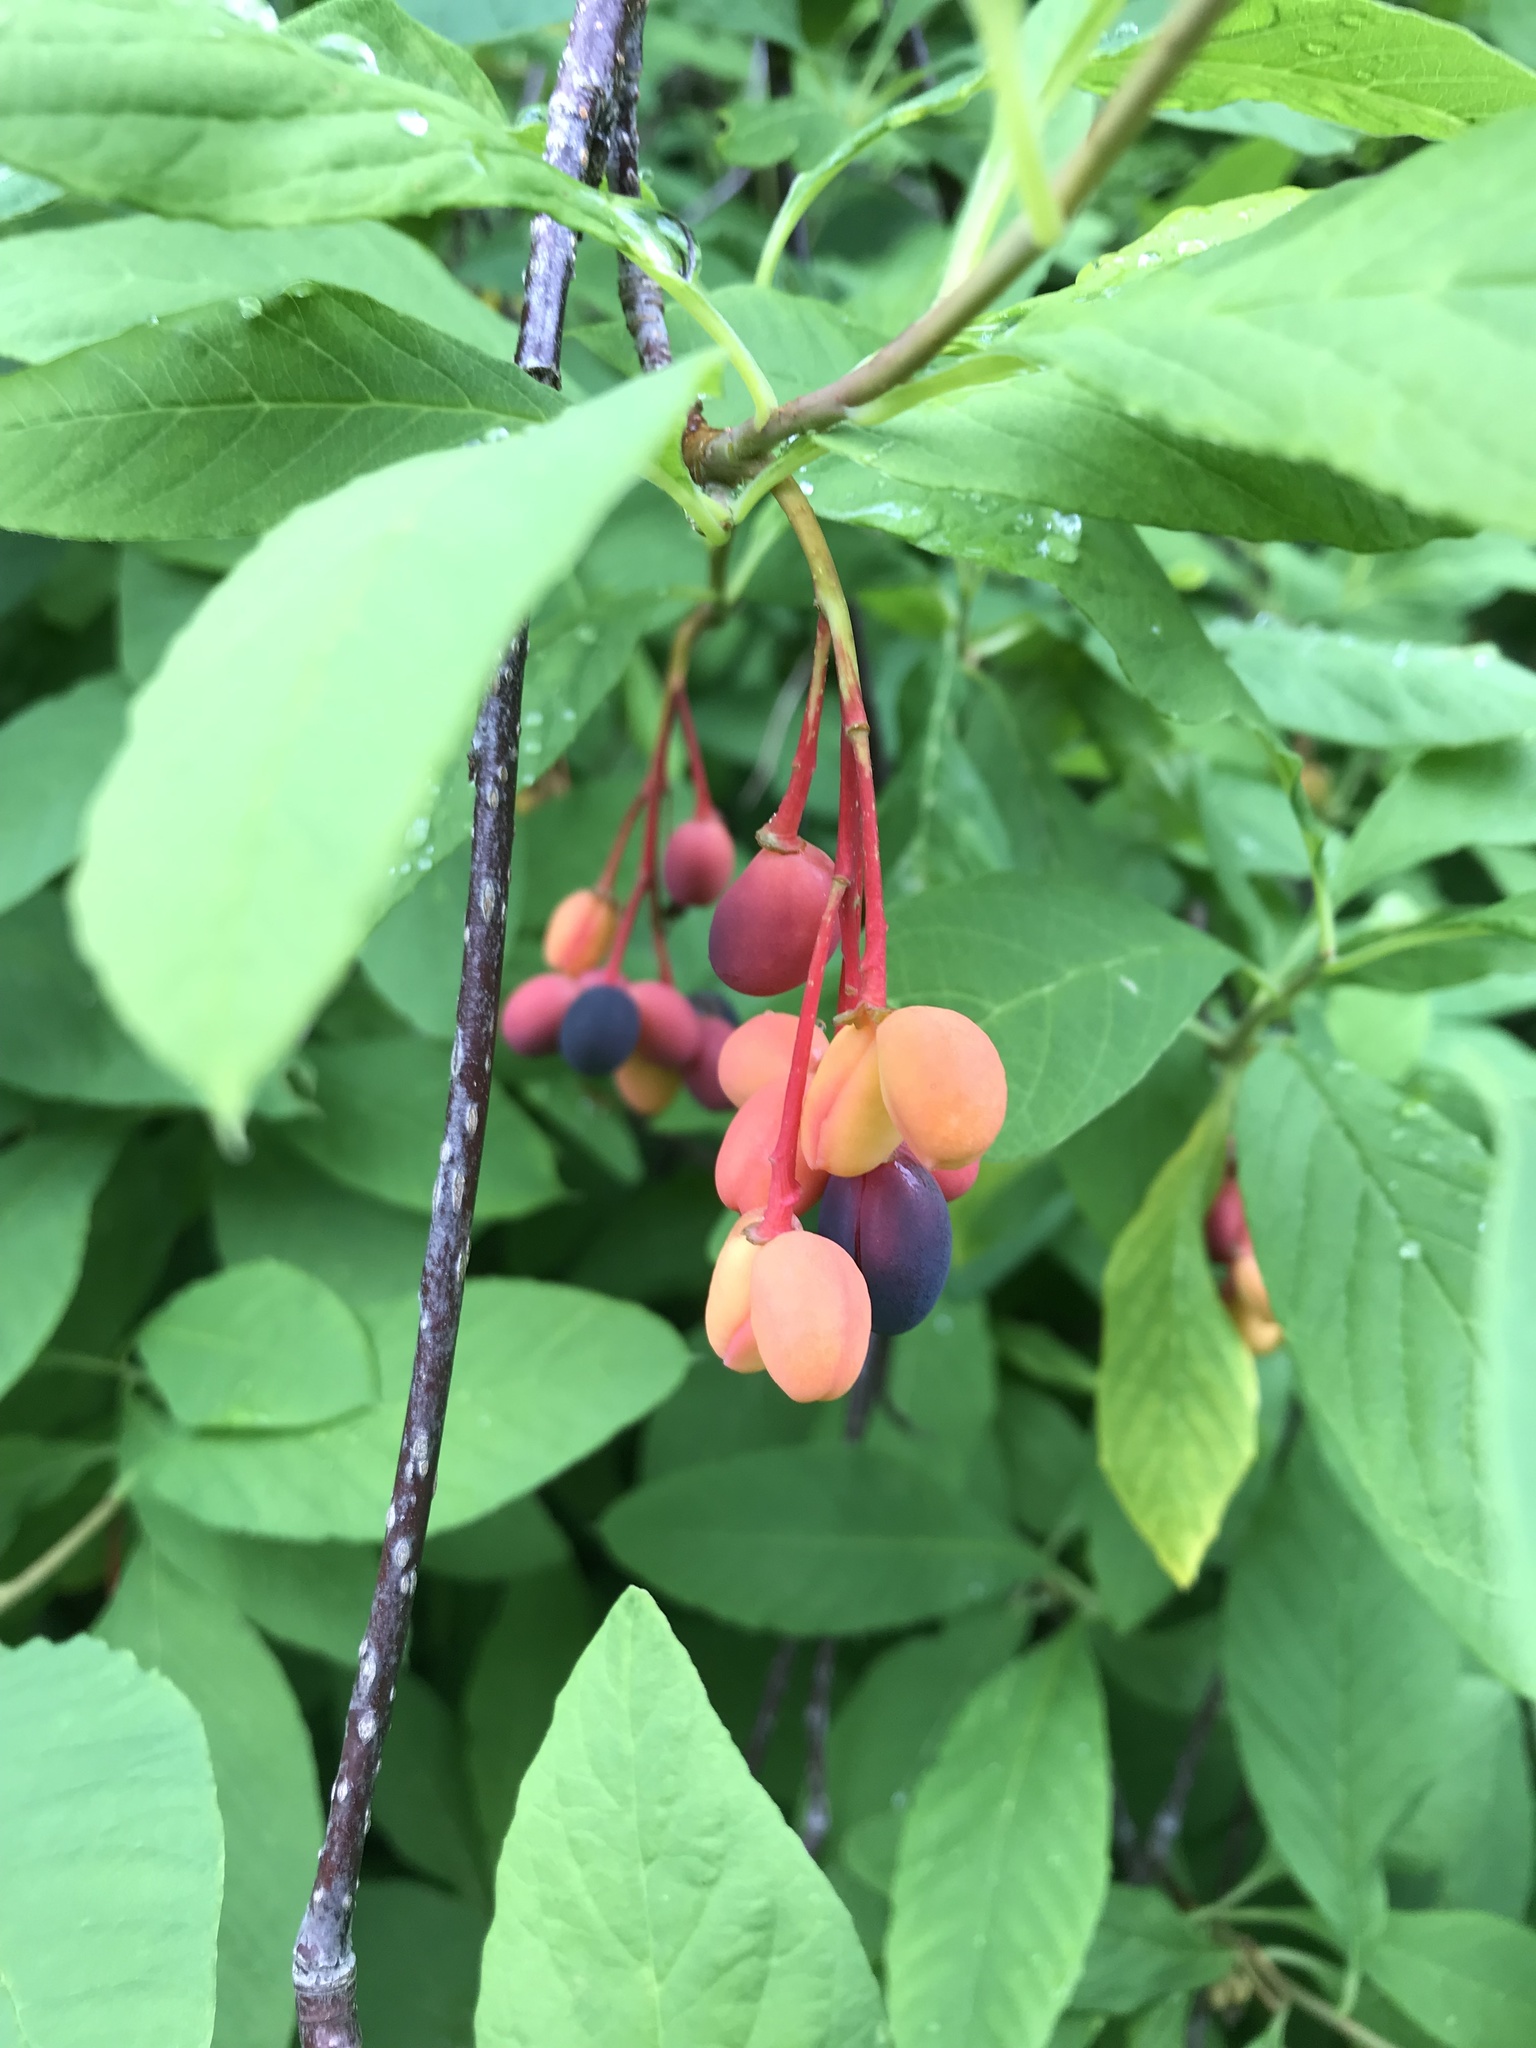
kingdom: Plantae
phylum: Tracheophyta
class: Magnoliopsida
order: Rosales
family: Rosaceae
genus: Oemleria
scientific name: Oemleria cerasiformis
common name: Osoberry
